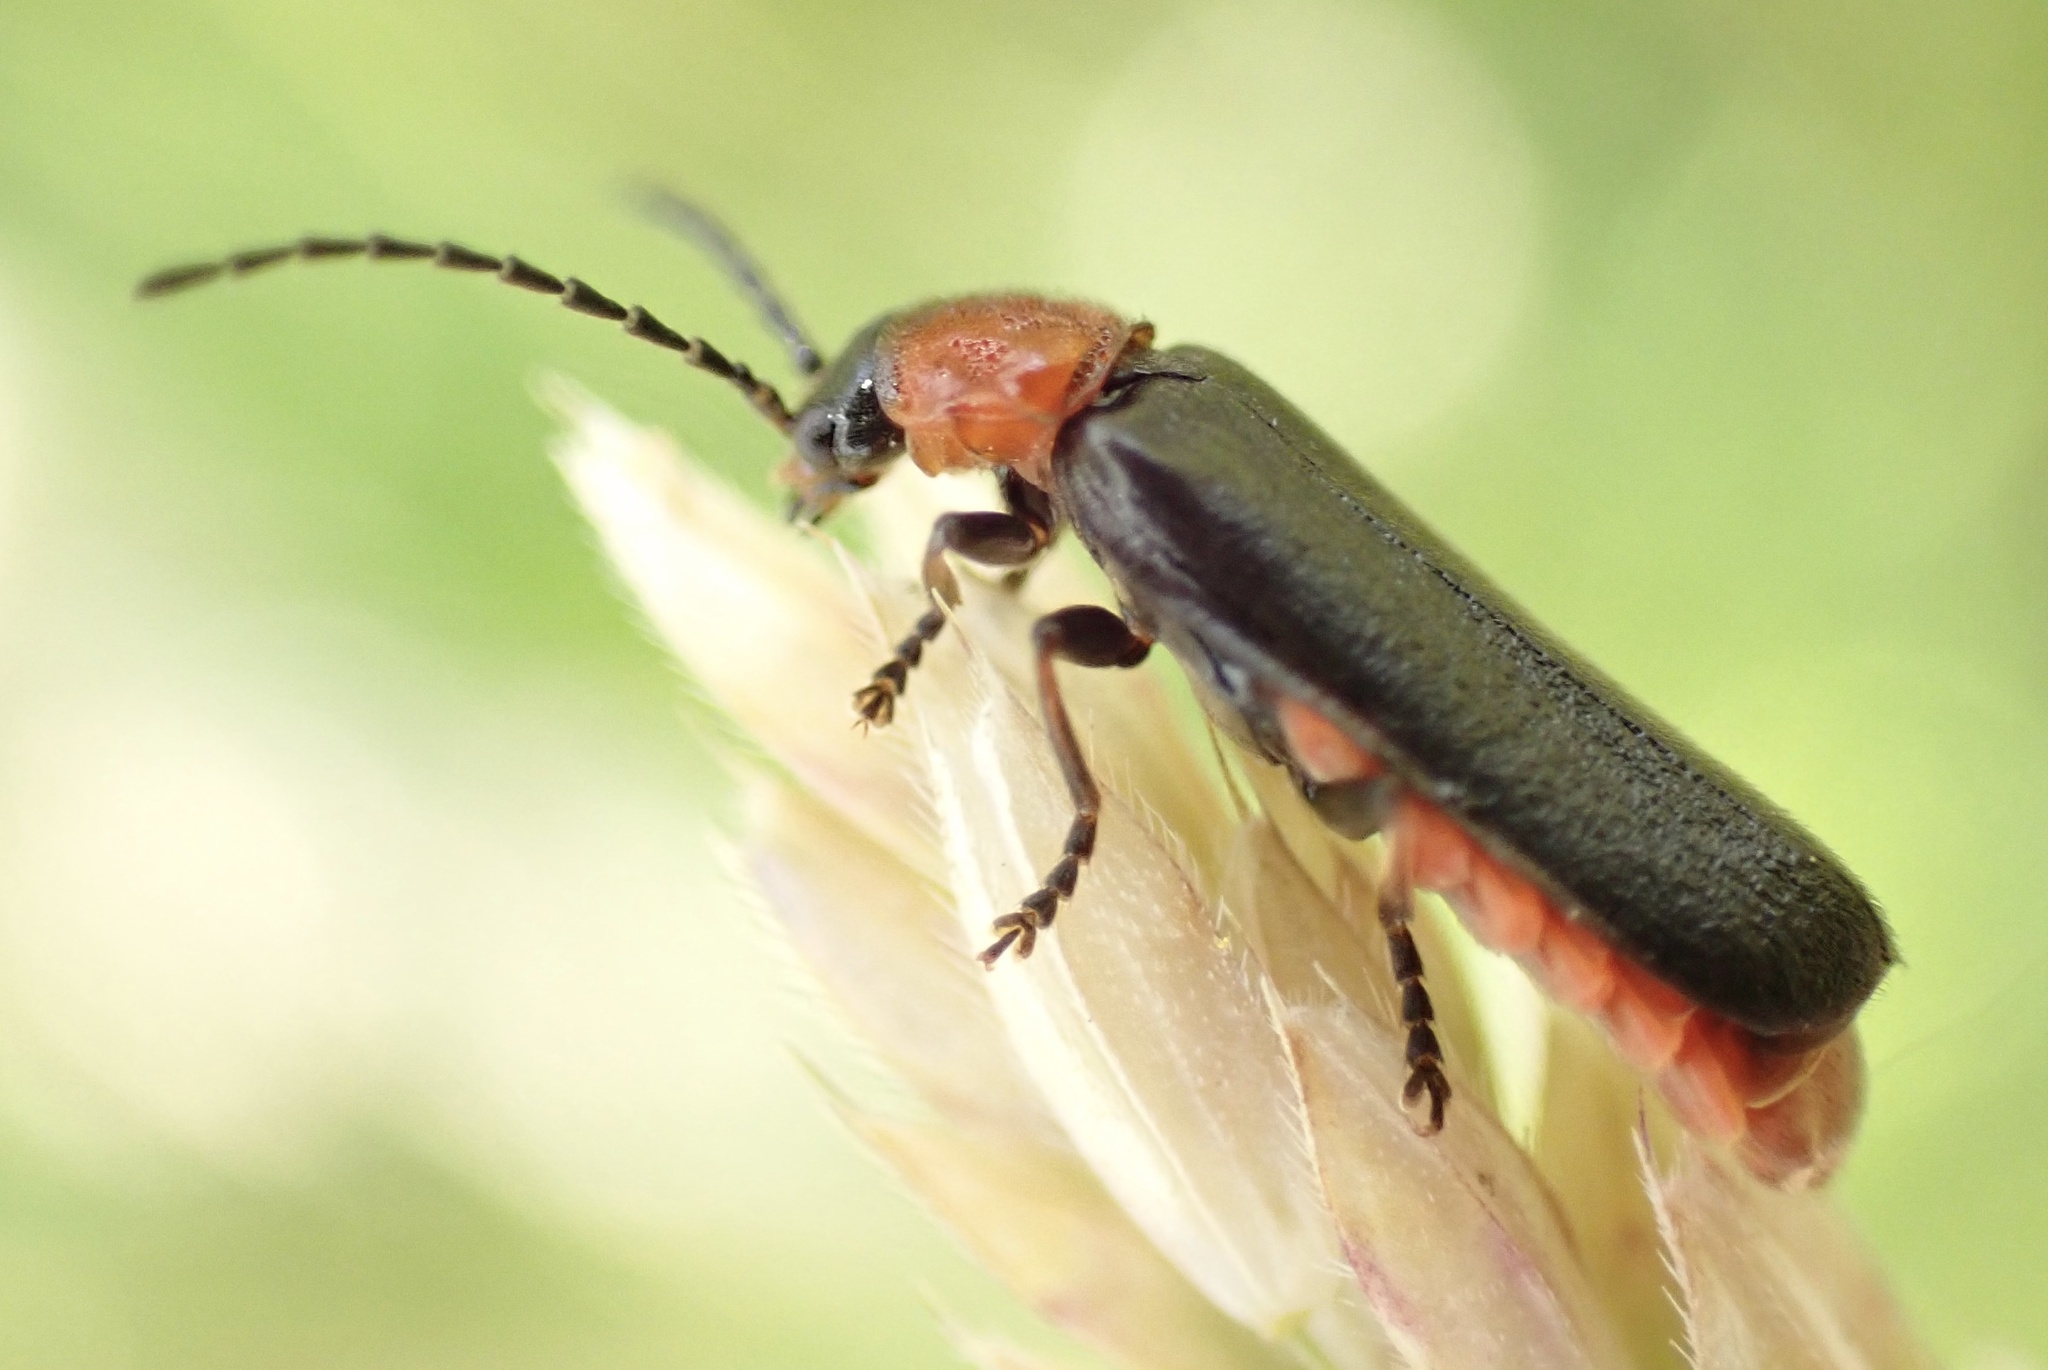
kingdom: Animalia
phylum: Arthropoda
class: Insecta
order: Coleoptera
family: Cantharidae
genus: Crudosilis
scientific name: Crudosilis ruficollis
